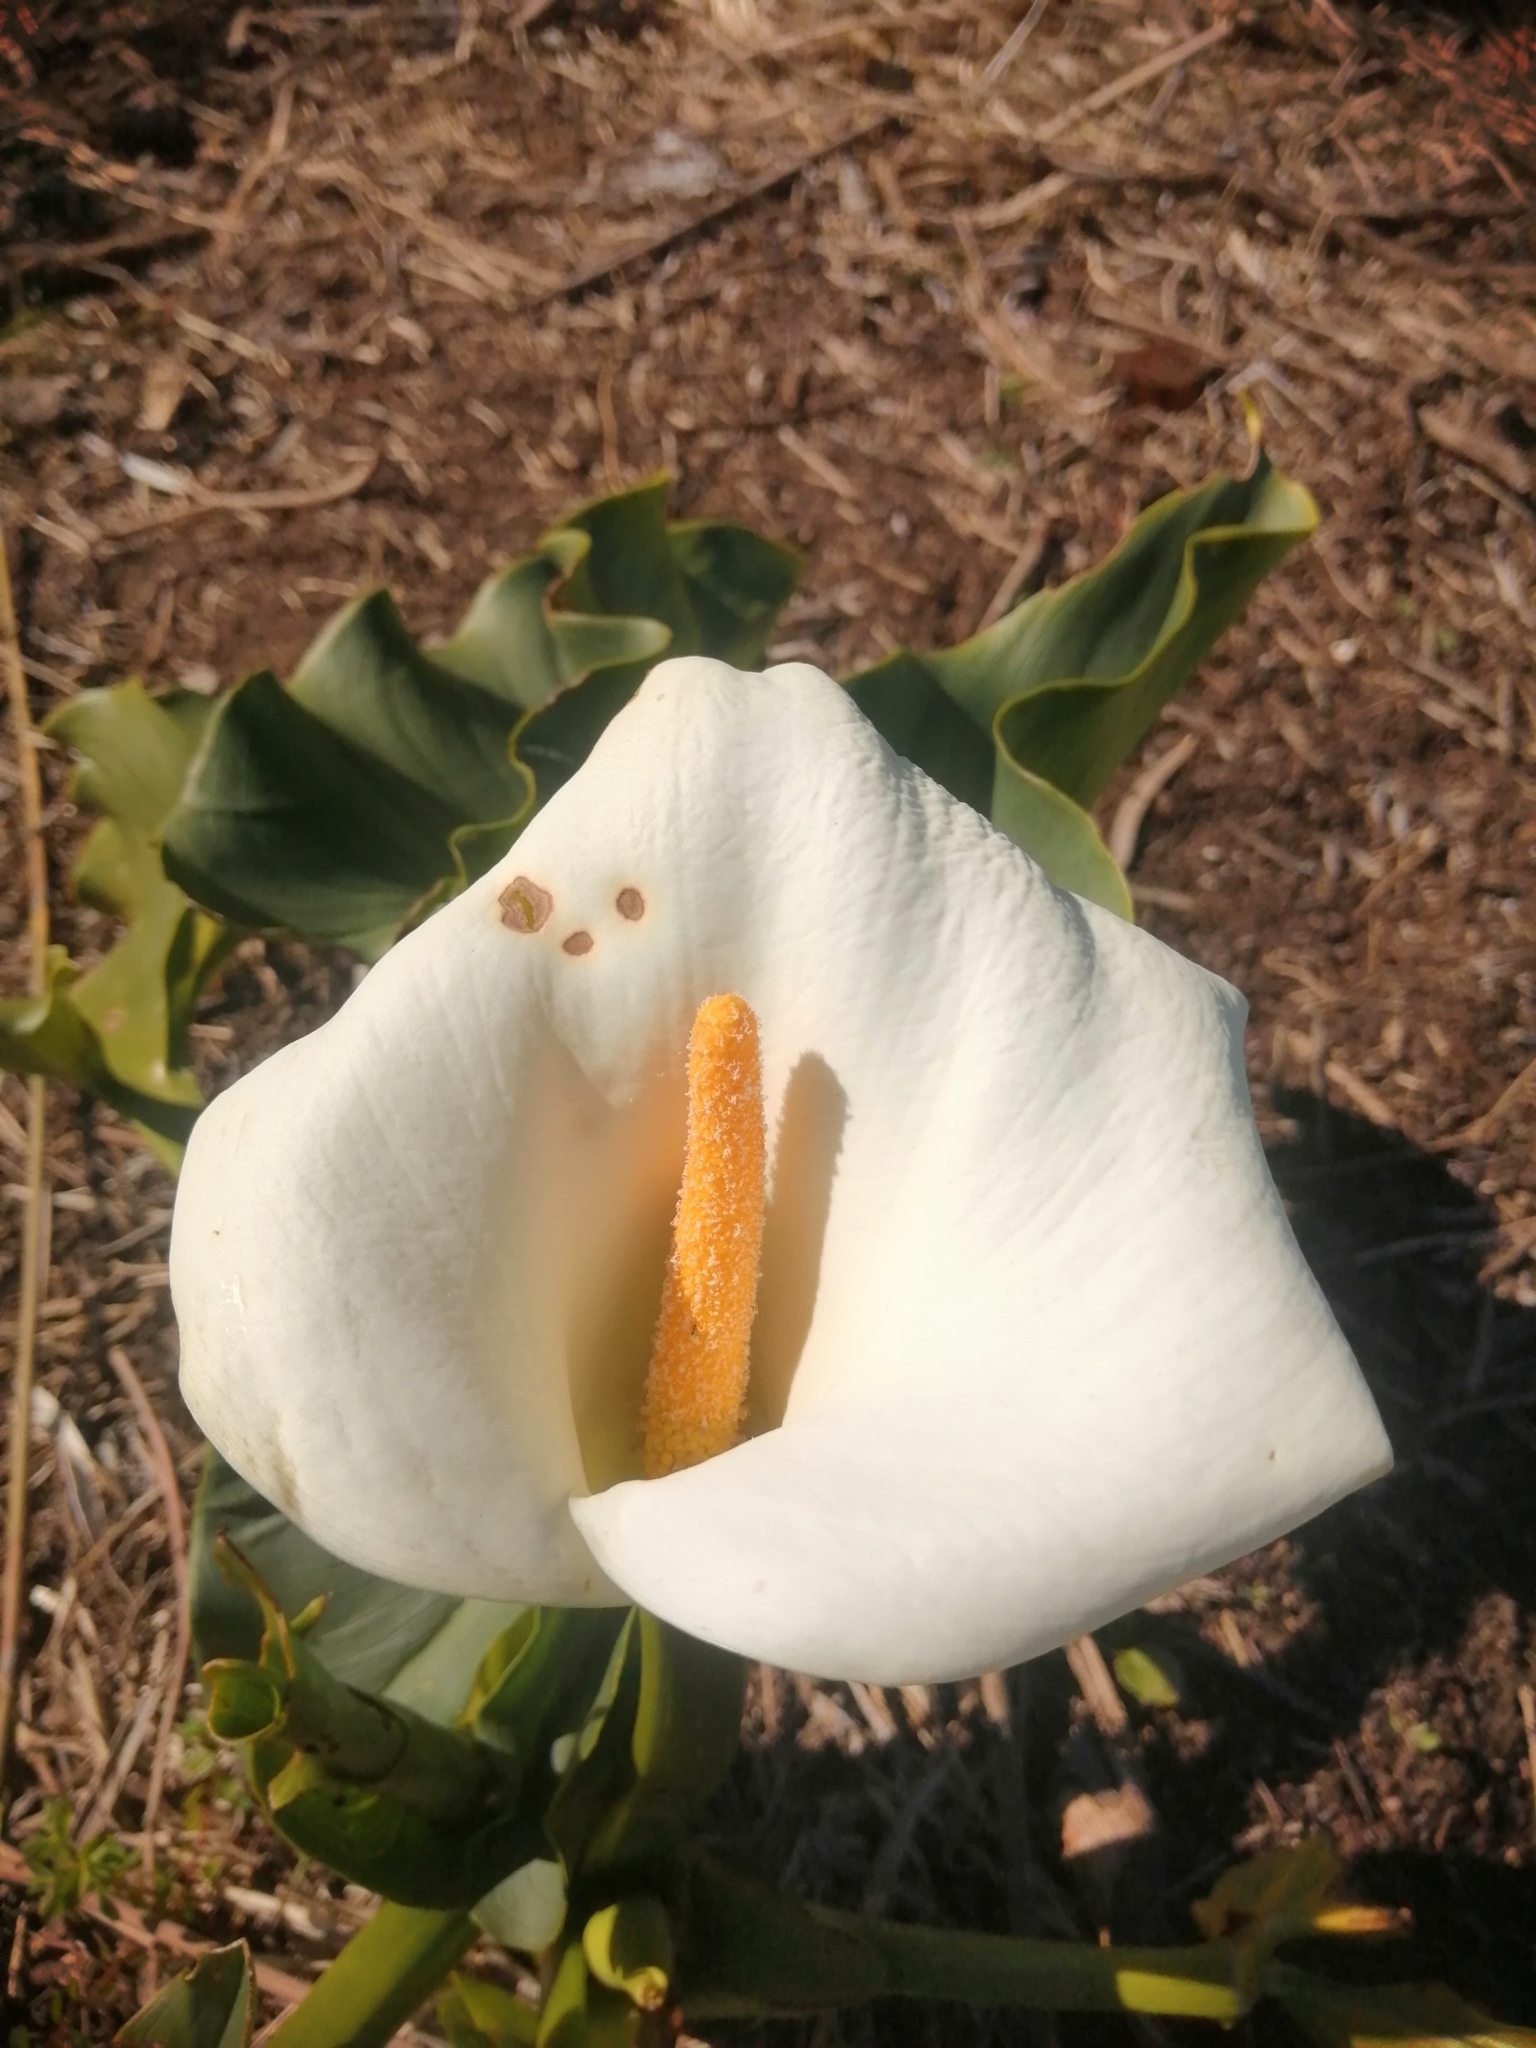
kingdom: Plantae
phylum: Tracheophyta
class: Liliopsida
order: Alismatales
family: Araceae
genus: Zantedeschia
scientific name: Zantedeschia aethiopica
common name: Altar-lily
